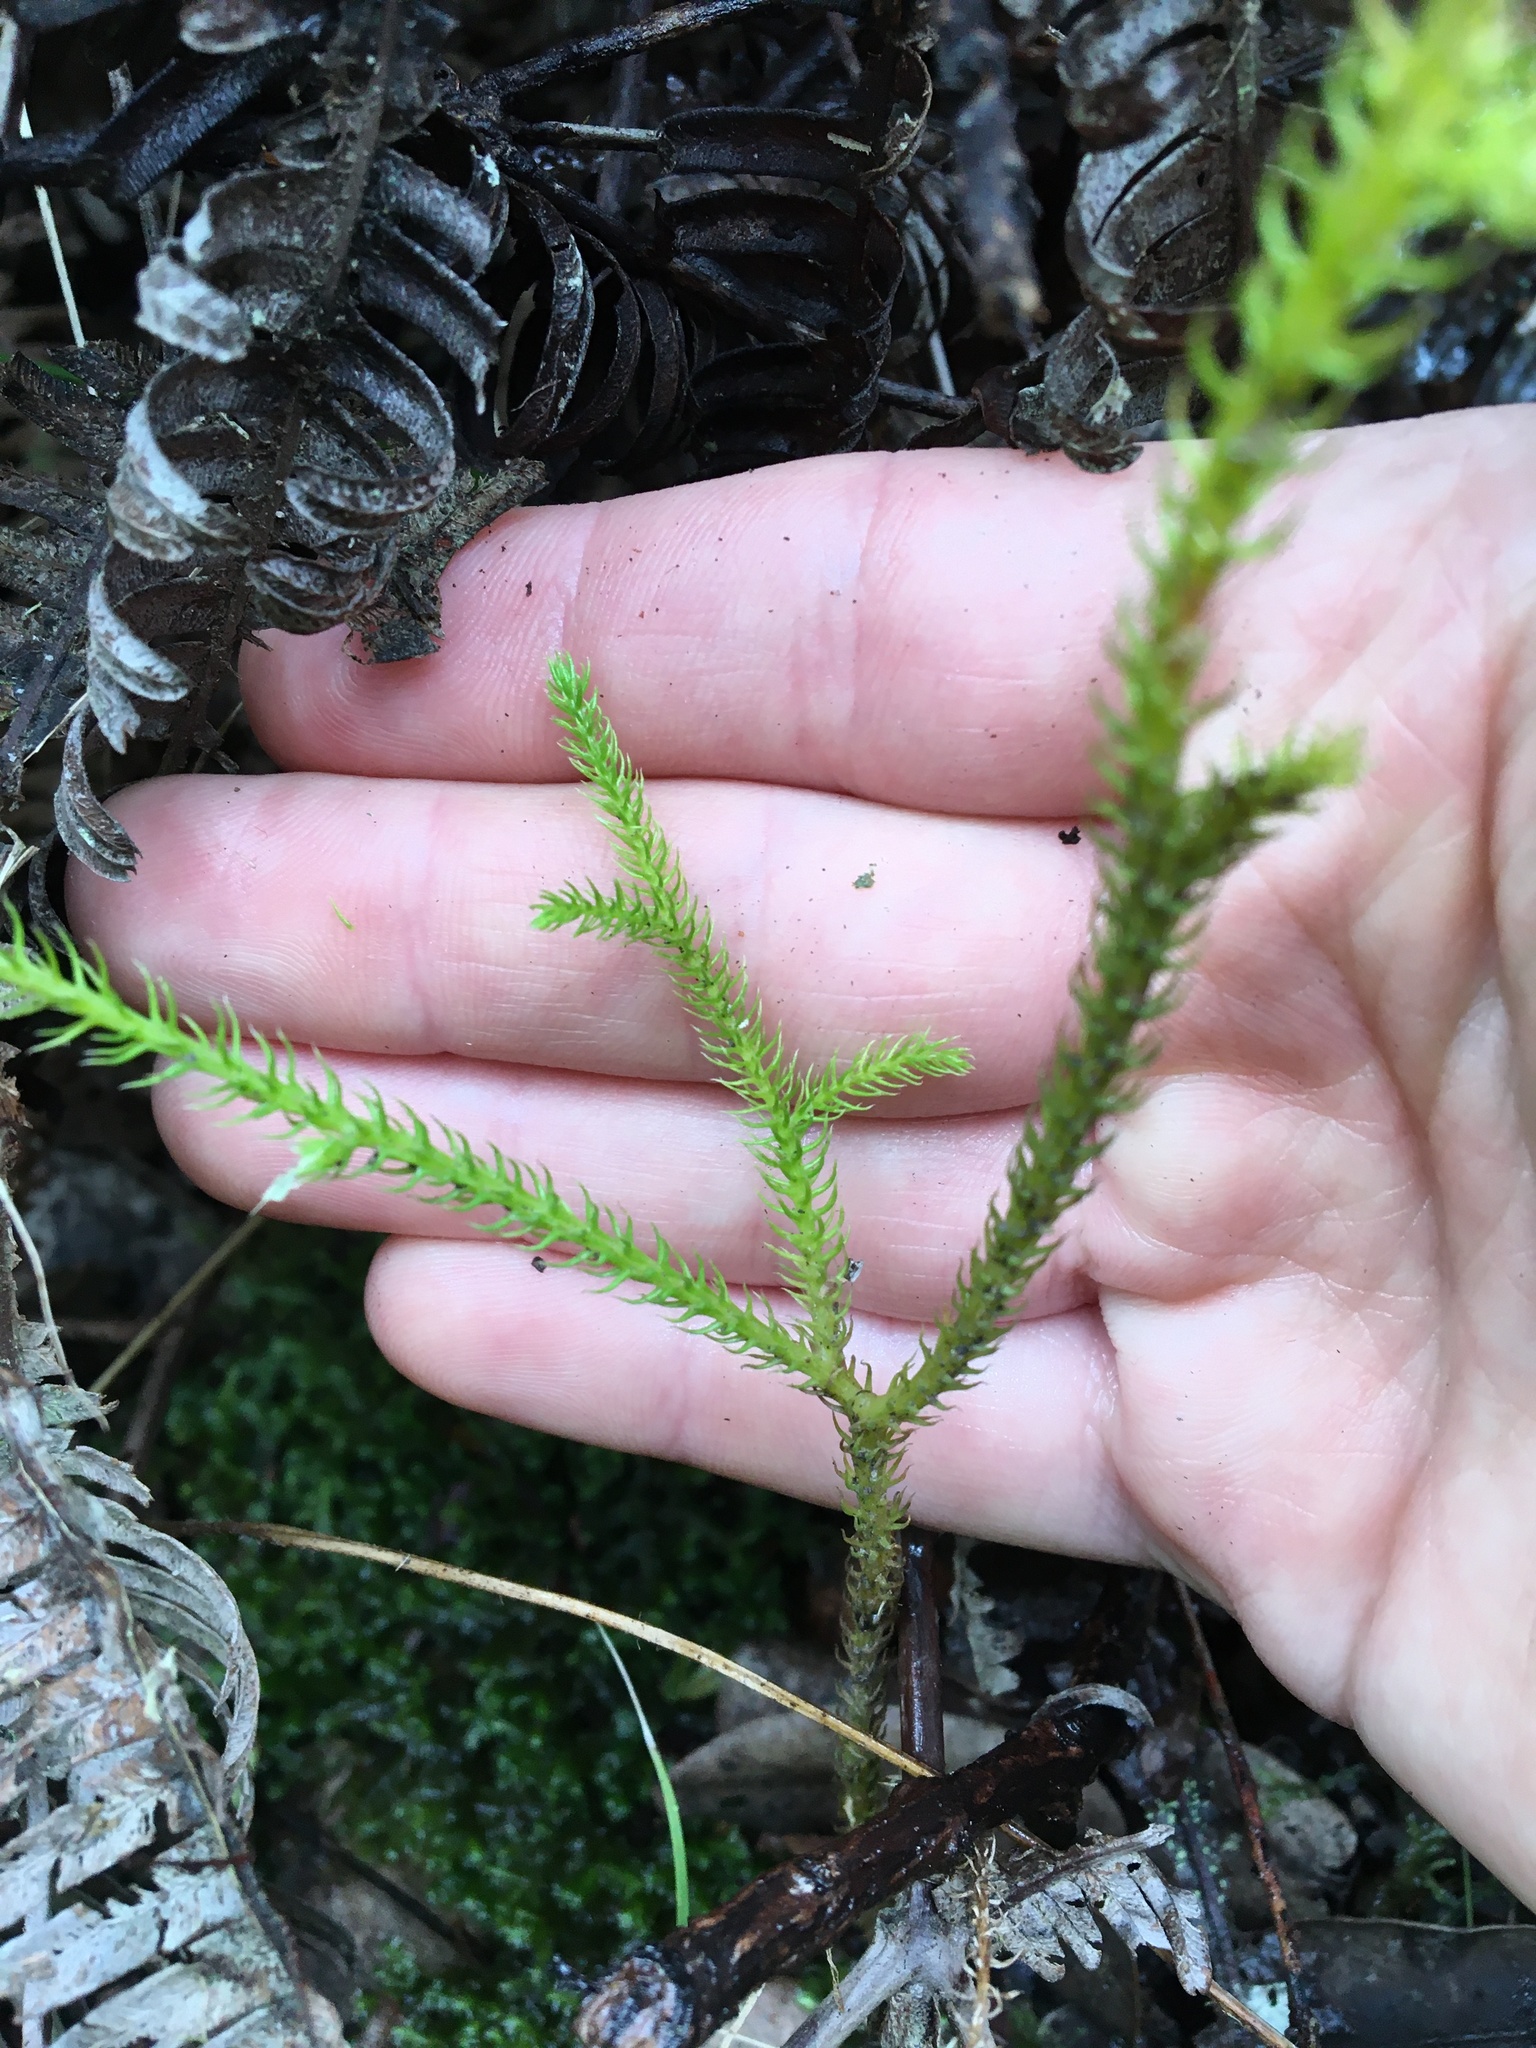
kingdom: Plantae
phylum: Tracheophyta
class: Lycopodiopsida
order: Lycopodiales
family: Lycopodiaceae
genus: Palhinhaea
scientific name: Palhinhaea cernua
